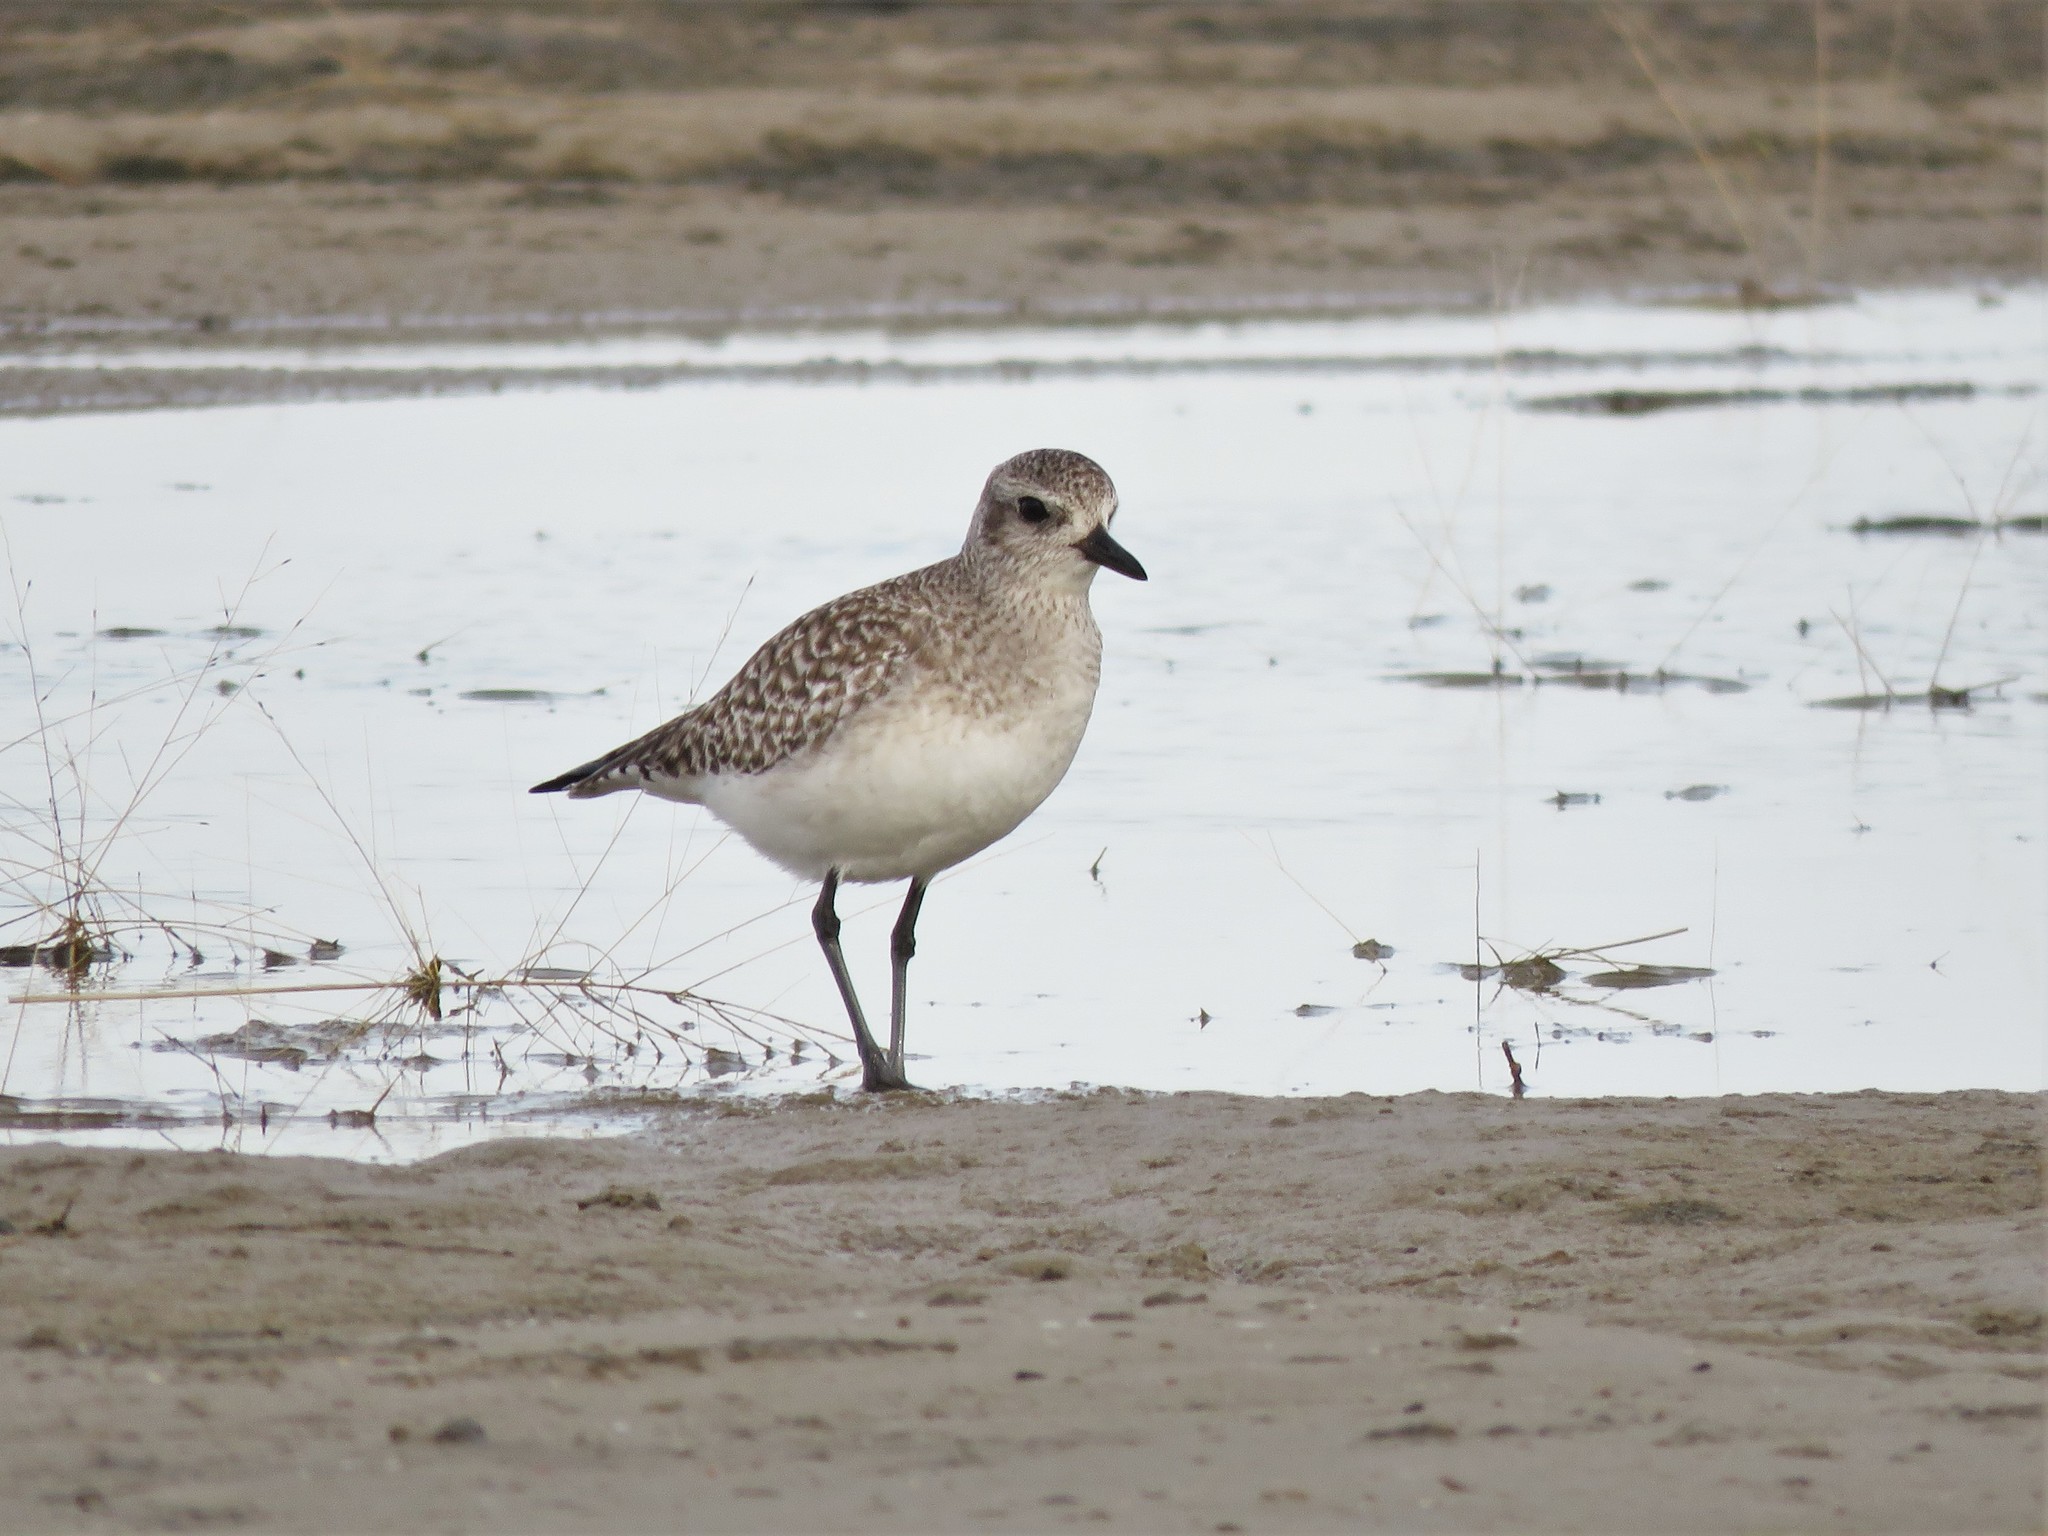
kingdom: Animalia
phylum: Chordata
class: Aves
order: Charadriiformes
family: Charadriidae
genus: Pluvialis
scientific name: Pluvialis squatarola
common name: Grey plover
